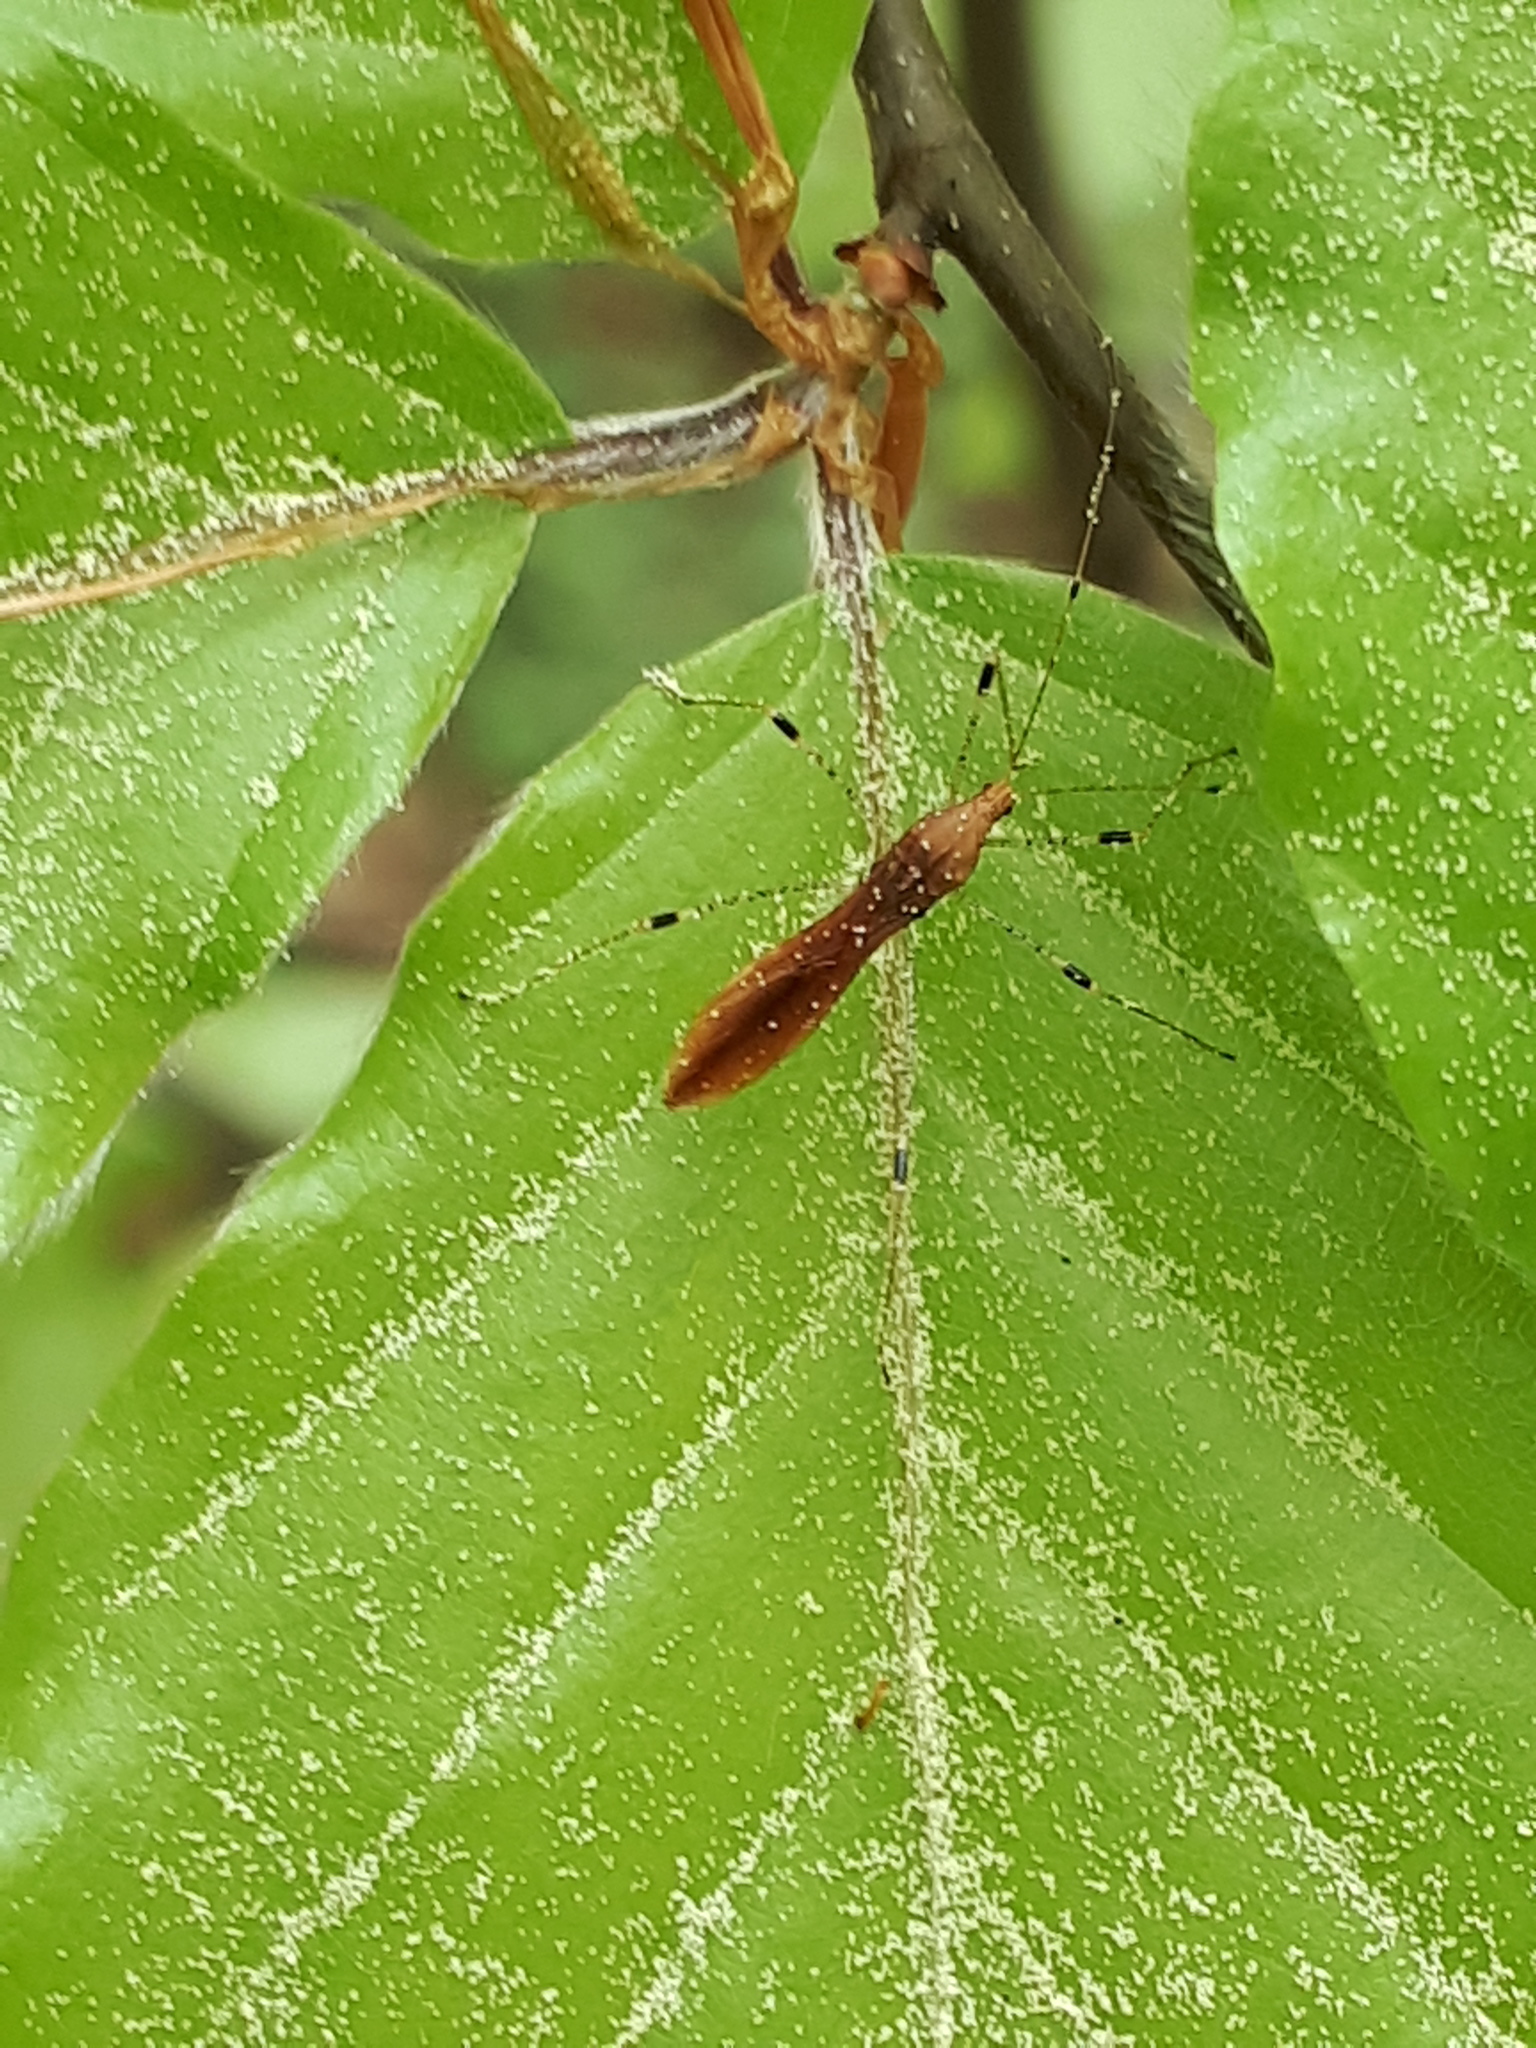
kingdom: Animalia
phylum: Arthropoda
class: Insecta
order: Hemiptera
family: Berytidae
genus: Metatropis
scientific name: Metatropis rufescens
